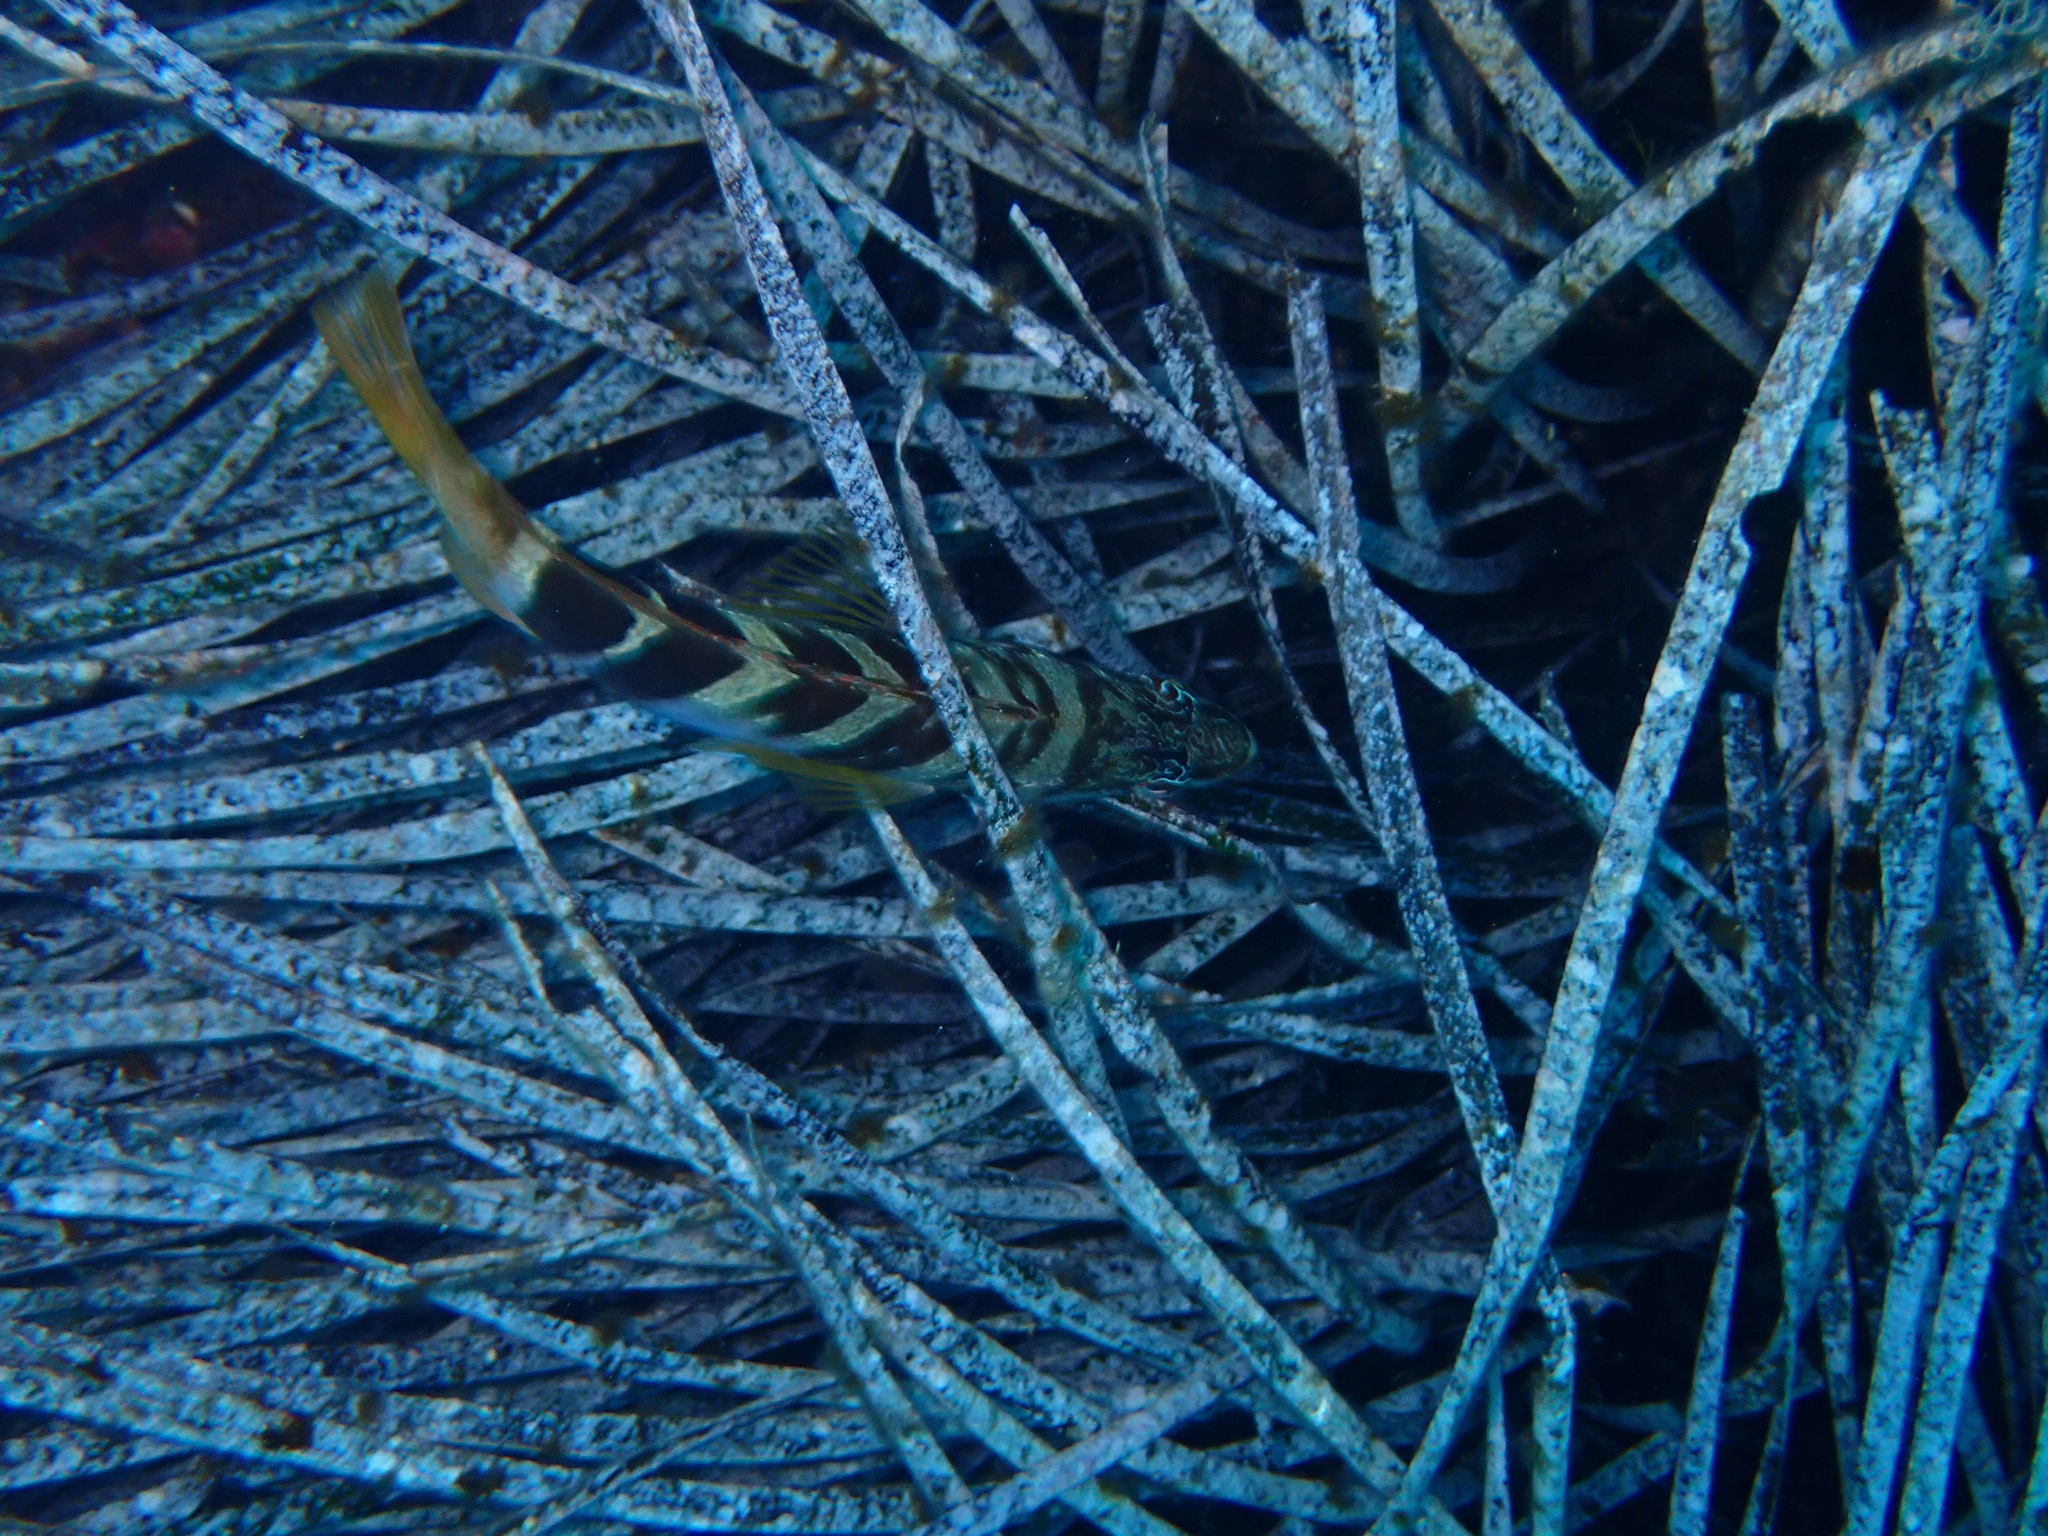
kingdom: Animalia
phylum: Chordata
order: Perciformes
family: Serranidae
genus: Serranus
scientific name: Serranus scriba
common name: Painted comber
